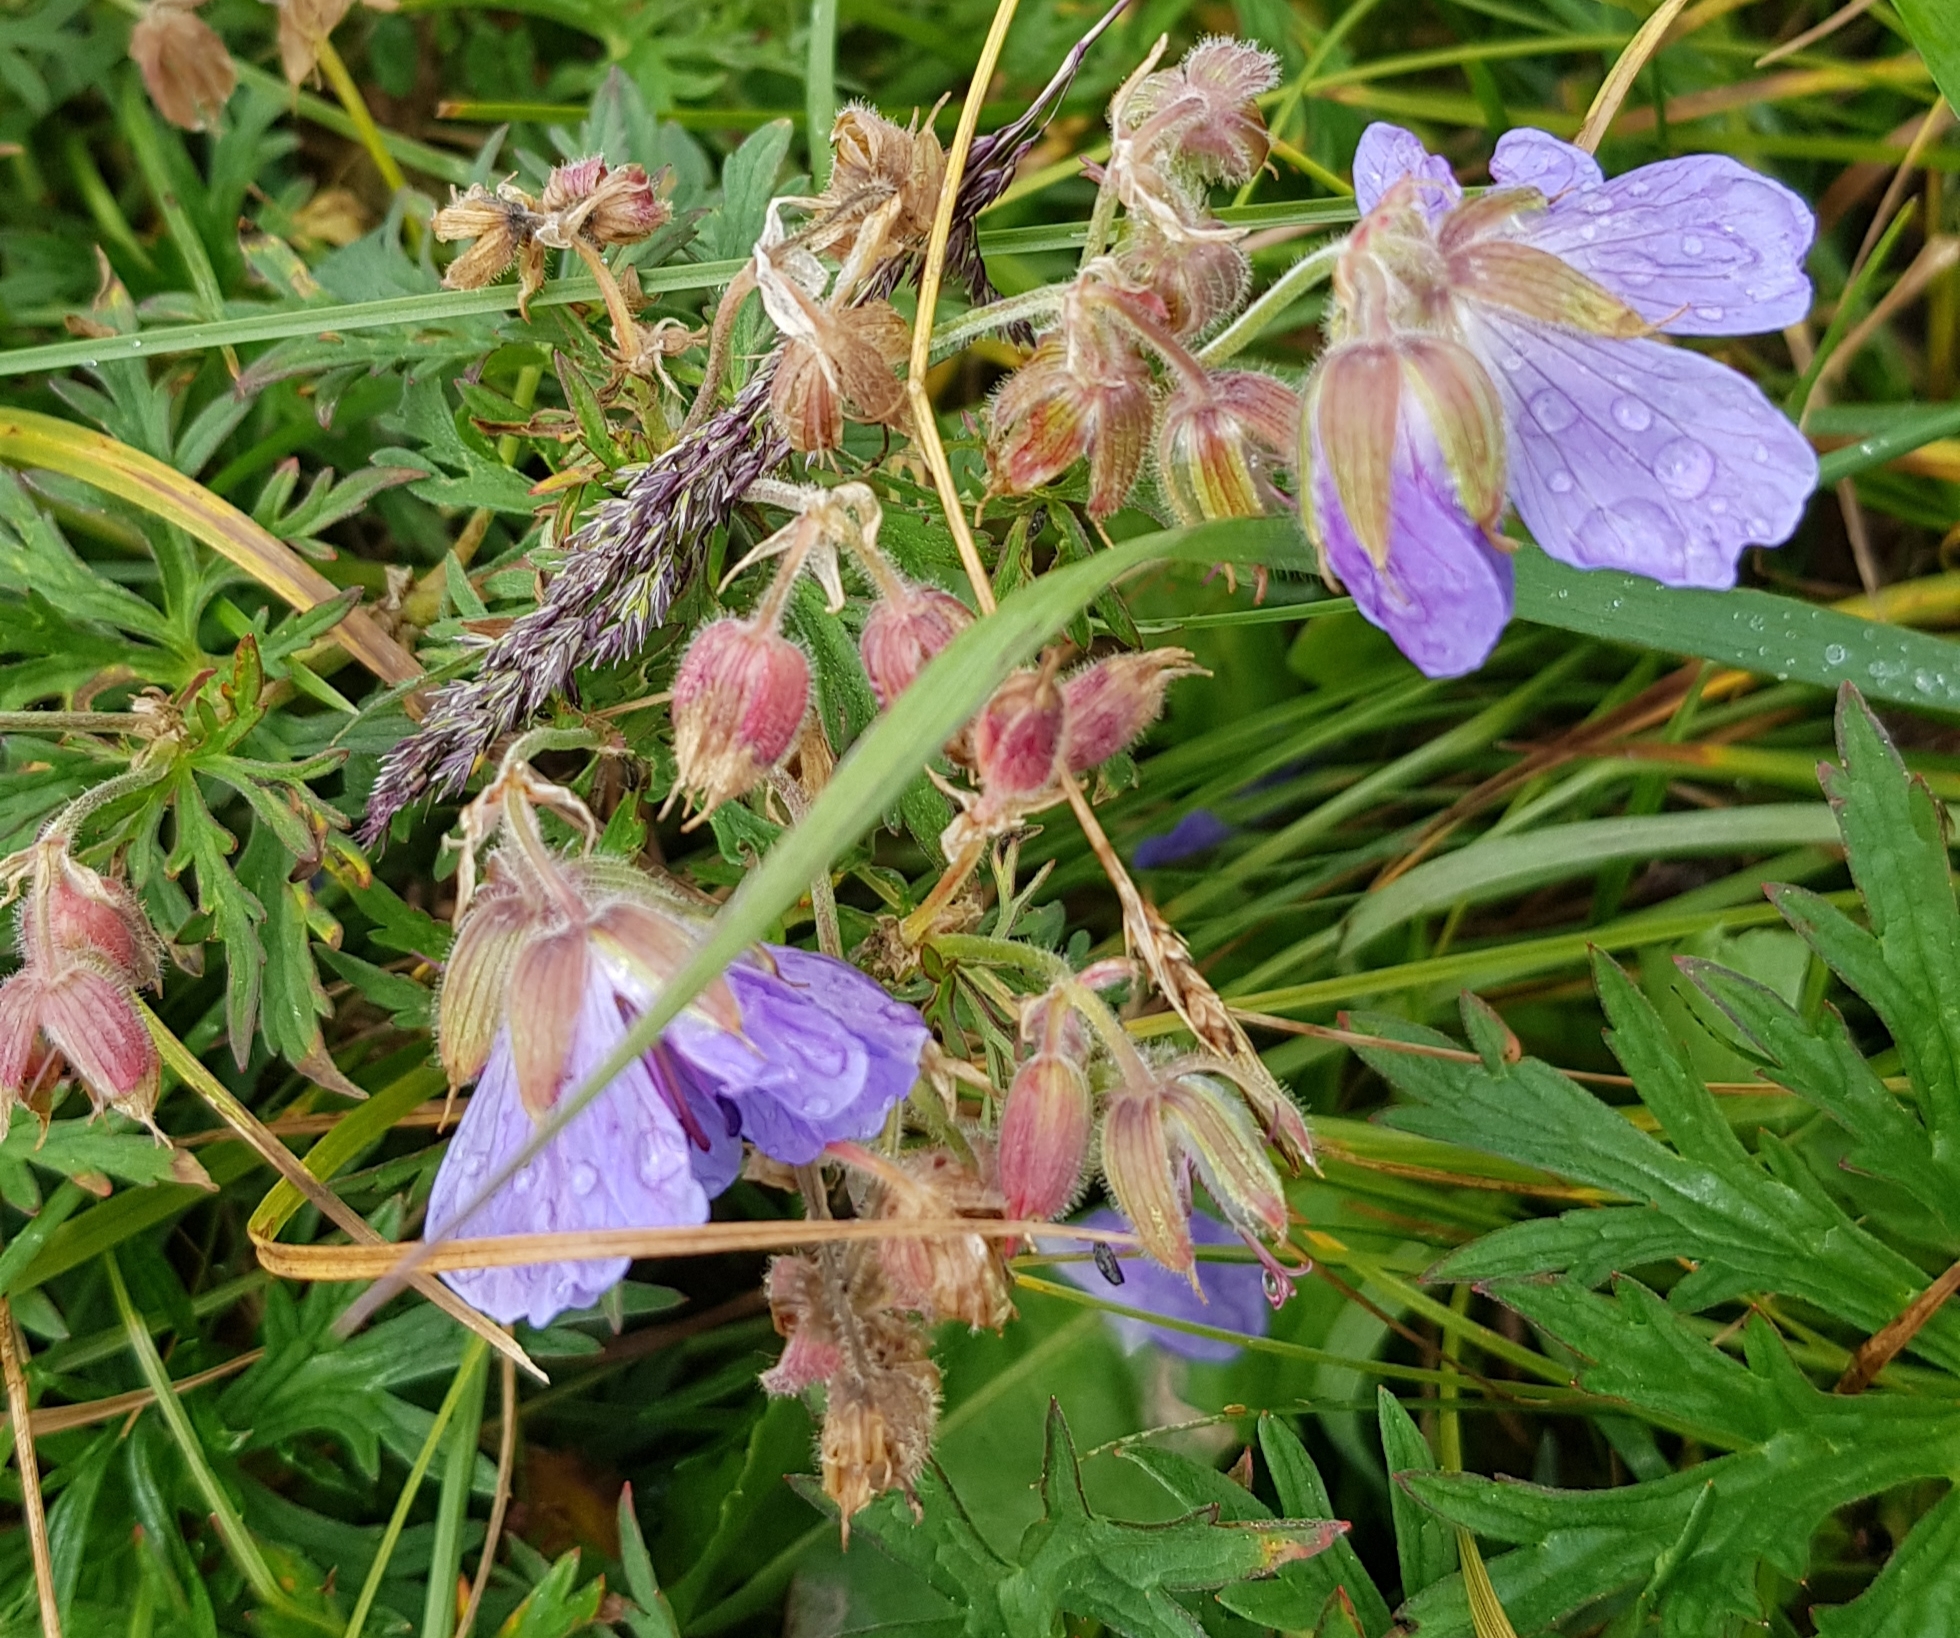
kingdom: Plantae
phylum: Tracheophyta
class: Magnoliopsida
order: Geraniales
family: Geraniaceae
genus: Geranium
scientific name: Geranium pratense
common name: Meadow crane's-bill
